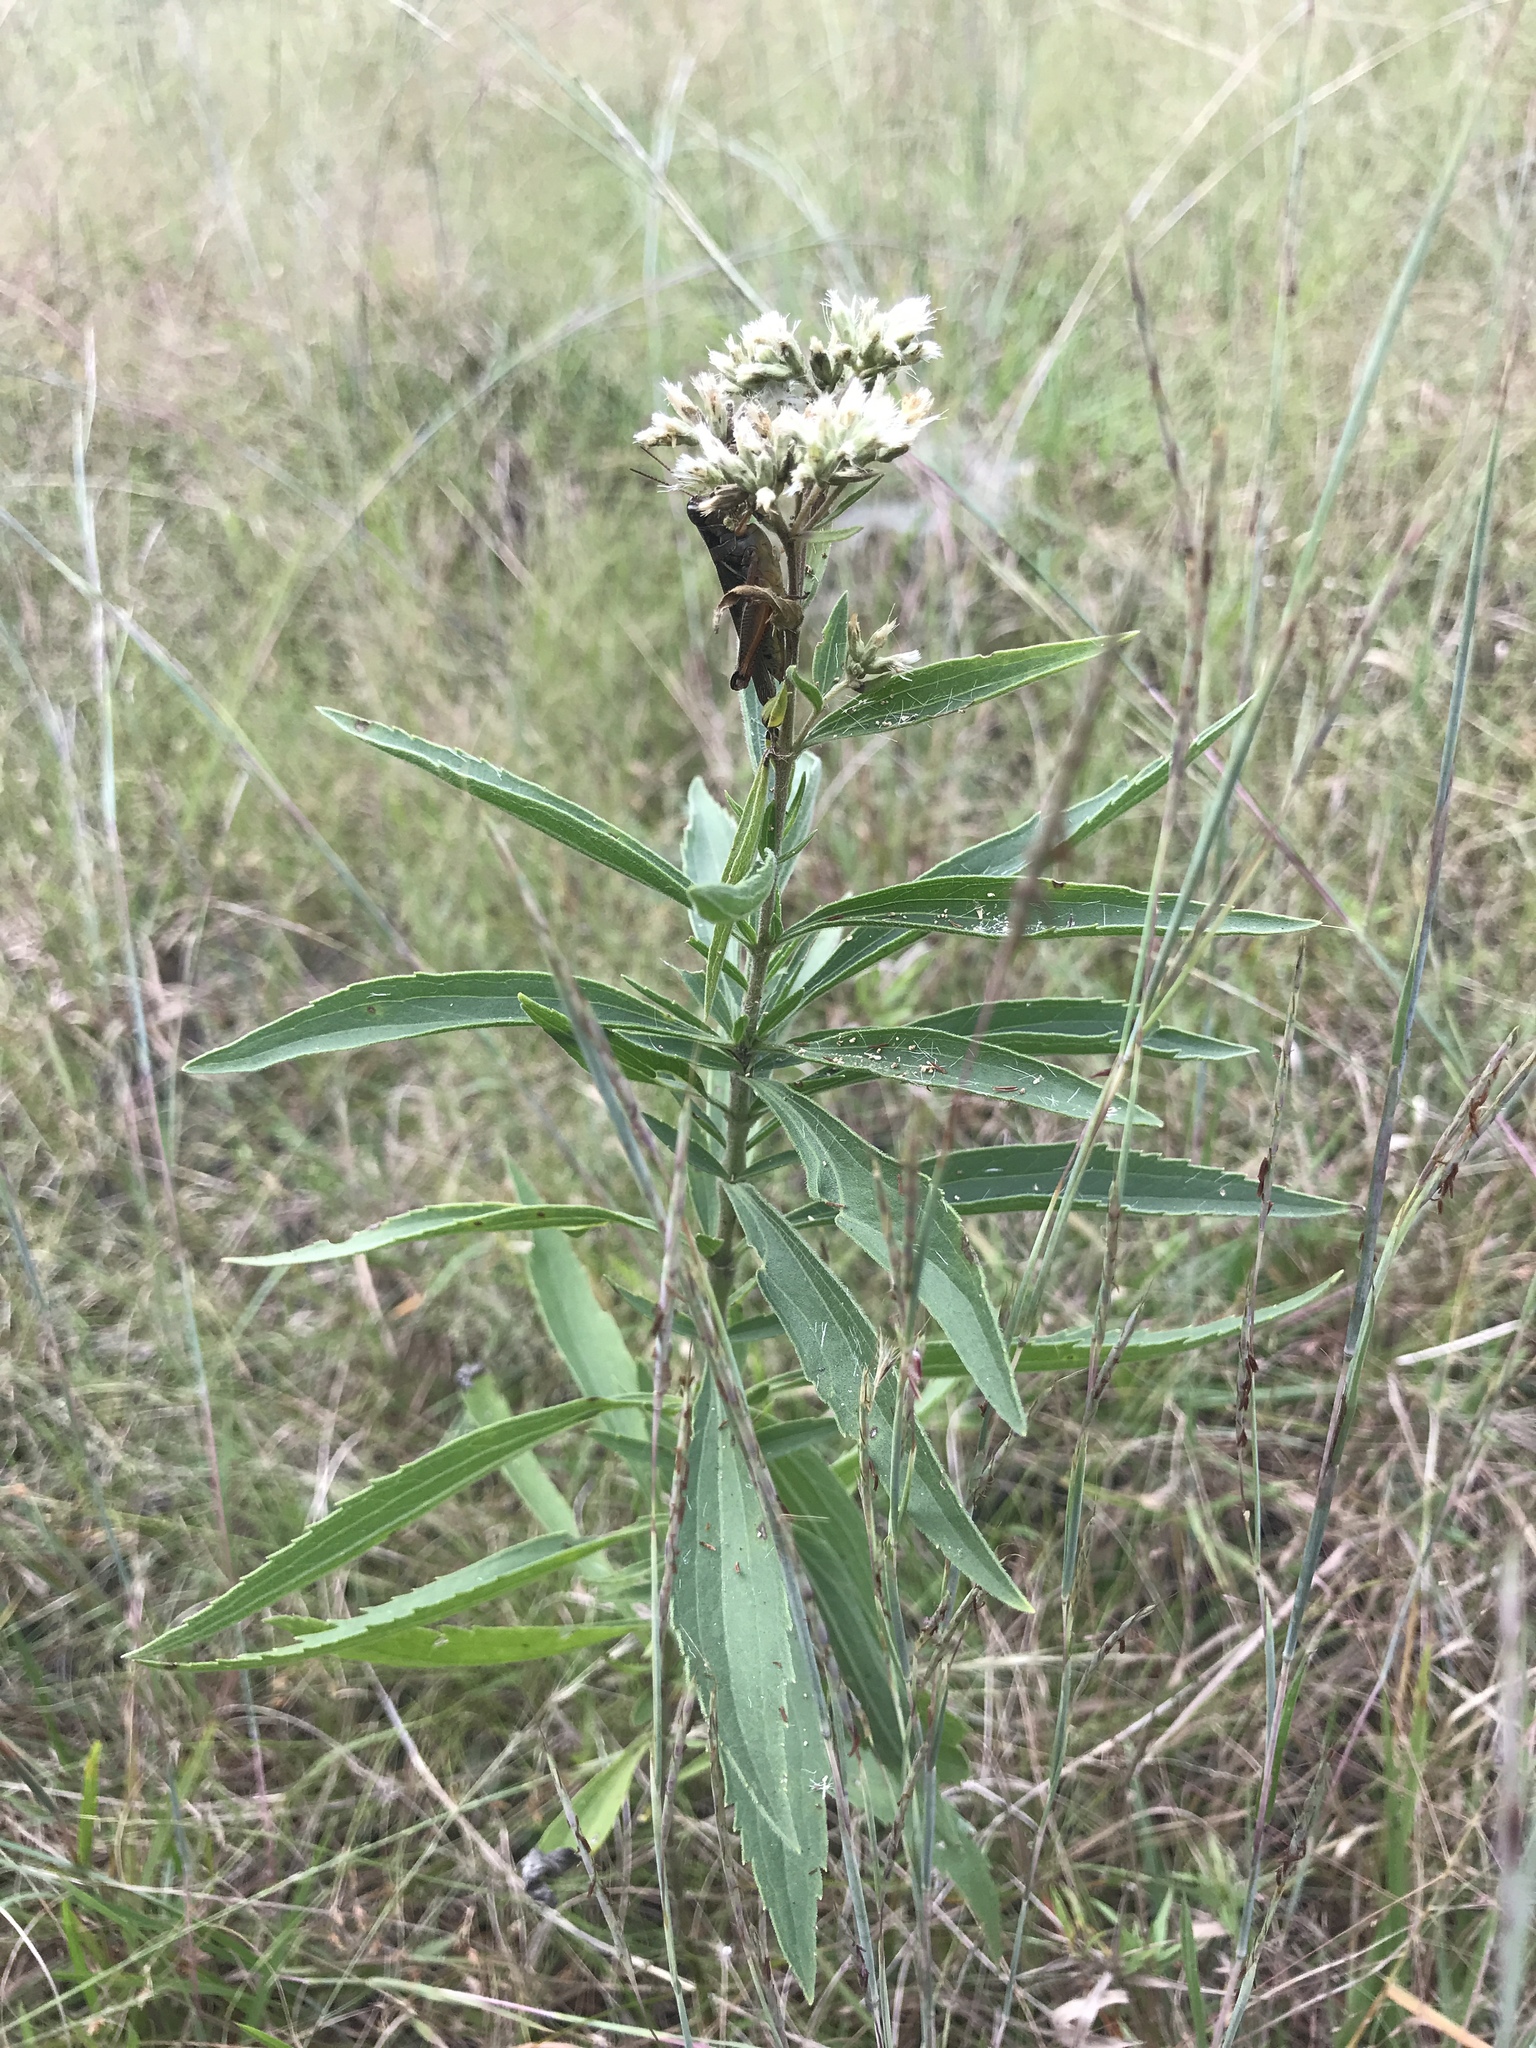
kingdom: Plantae
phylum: Tracheophyta
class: Magnoliopsida
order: Asterales
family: Asteraceae
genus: Eupatorium
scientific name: Eupatorium altissimum
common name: Tall thoroughwort
